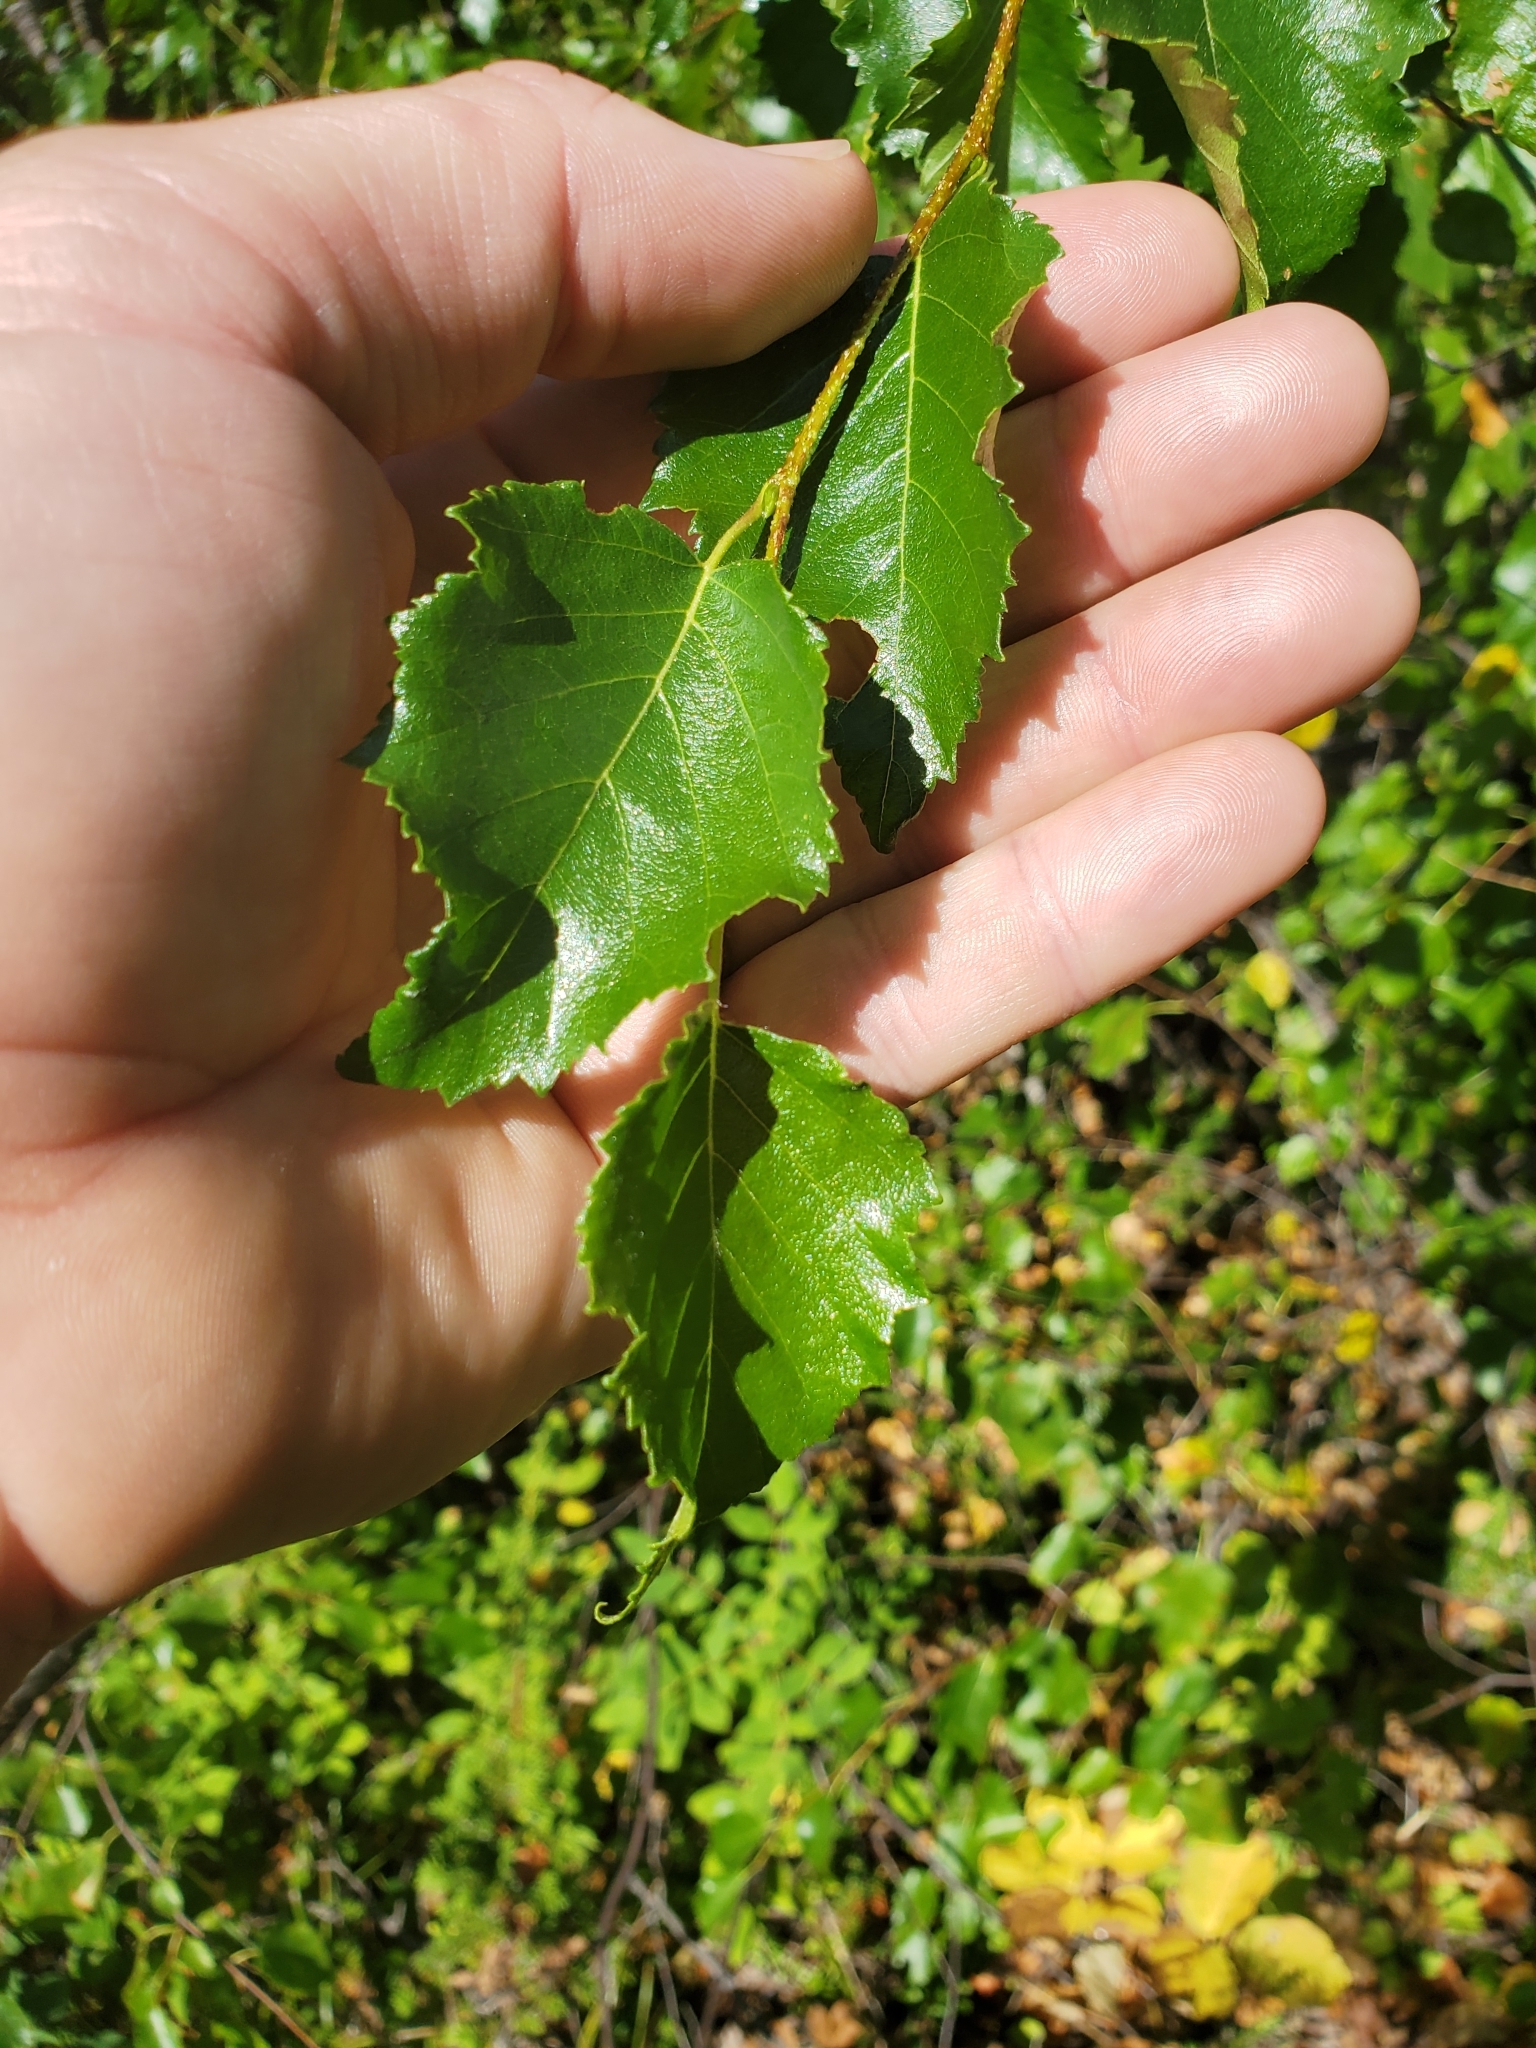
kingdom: Plantae
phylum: Tracheophyta
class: Magnoliopsida
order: Fagales
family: Betulaceae
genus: Betula
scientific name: Betula occidentalis
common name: River birch
